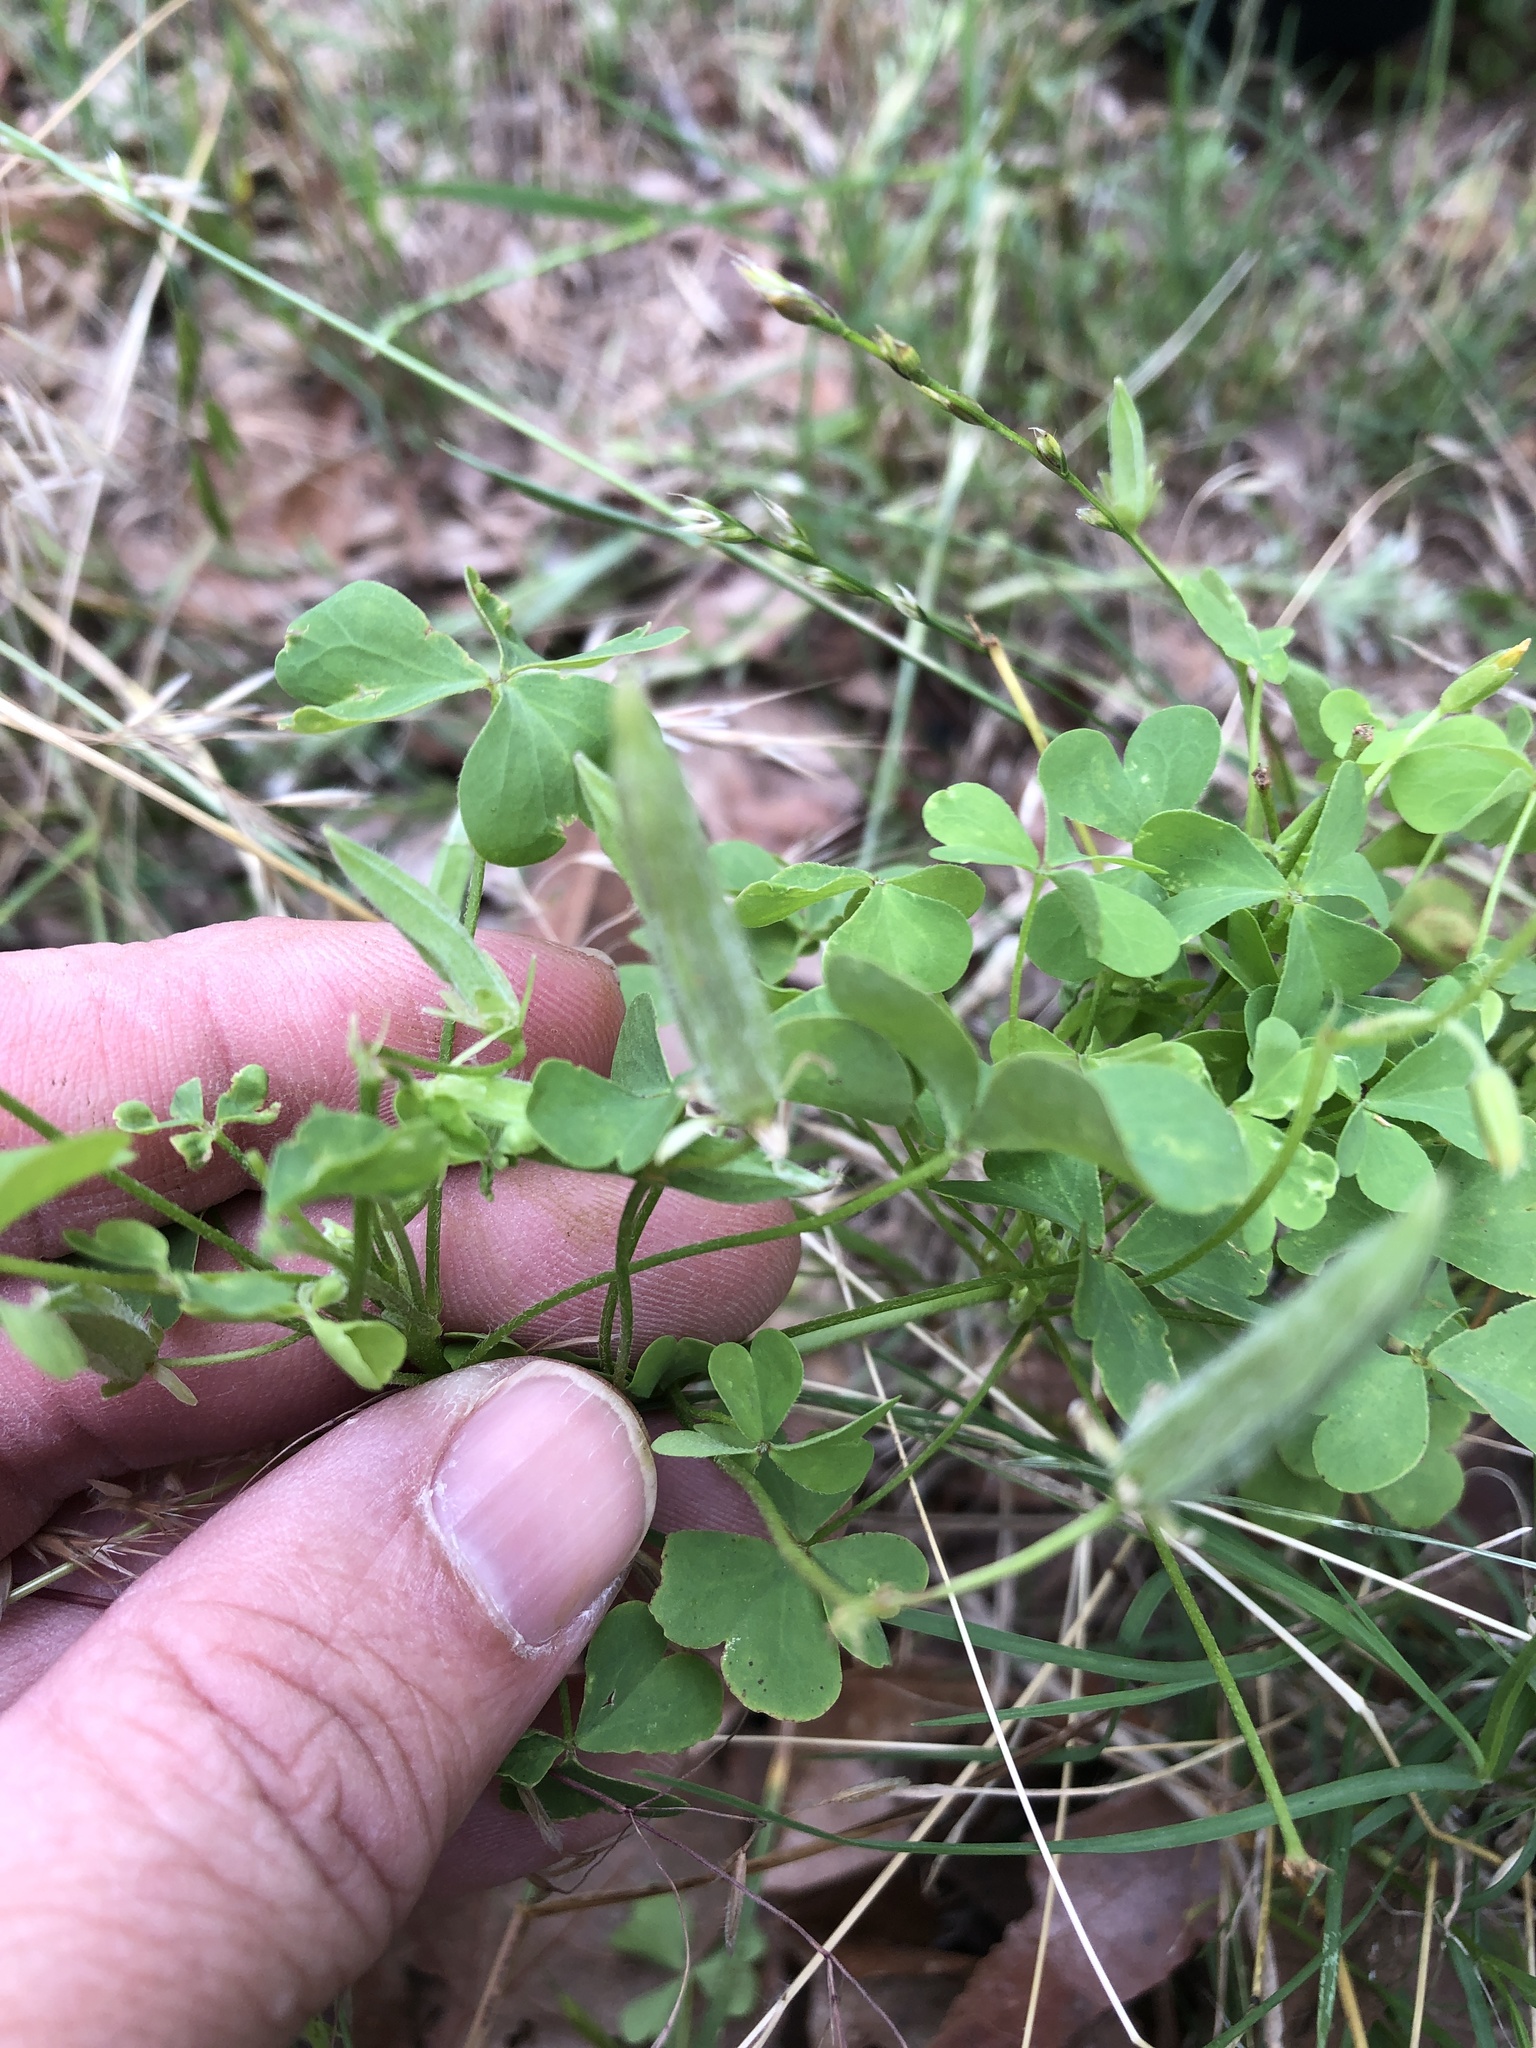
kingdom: Plantae
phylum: Tracheophyta
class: Magnoliopsida
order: Oxalidales
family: Oxalidaceae
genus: Oxalis
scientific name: Oxalis dillenii
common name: Sussex yellow-sorrel
